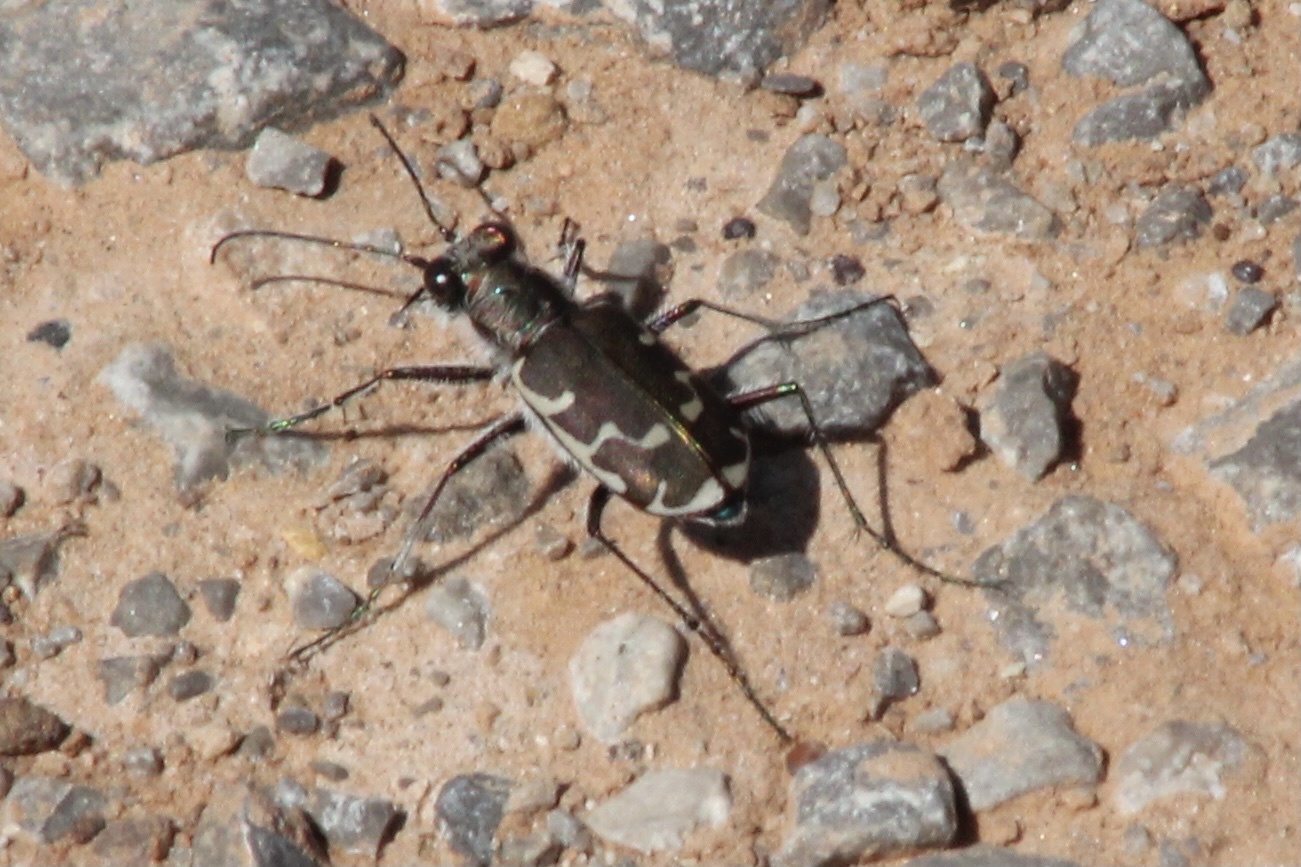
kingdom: Animalia
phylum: Arthropoda
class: Insecta
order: Coleoptera
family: Carabidae
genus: Cicindela
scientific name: Cicindela repanda
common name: Bronzed tiger beetle
